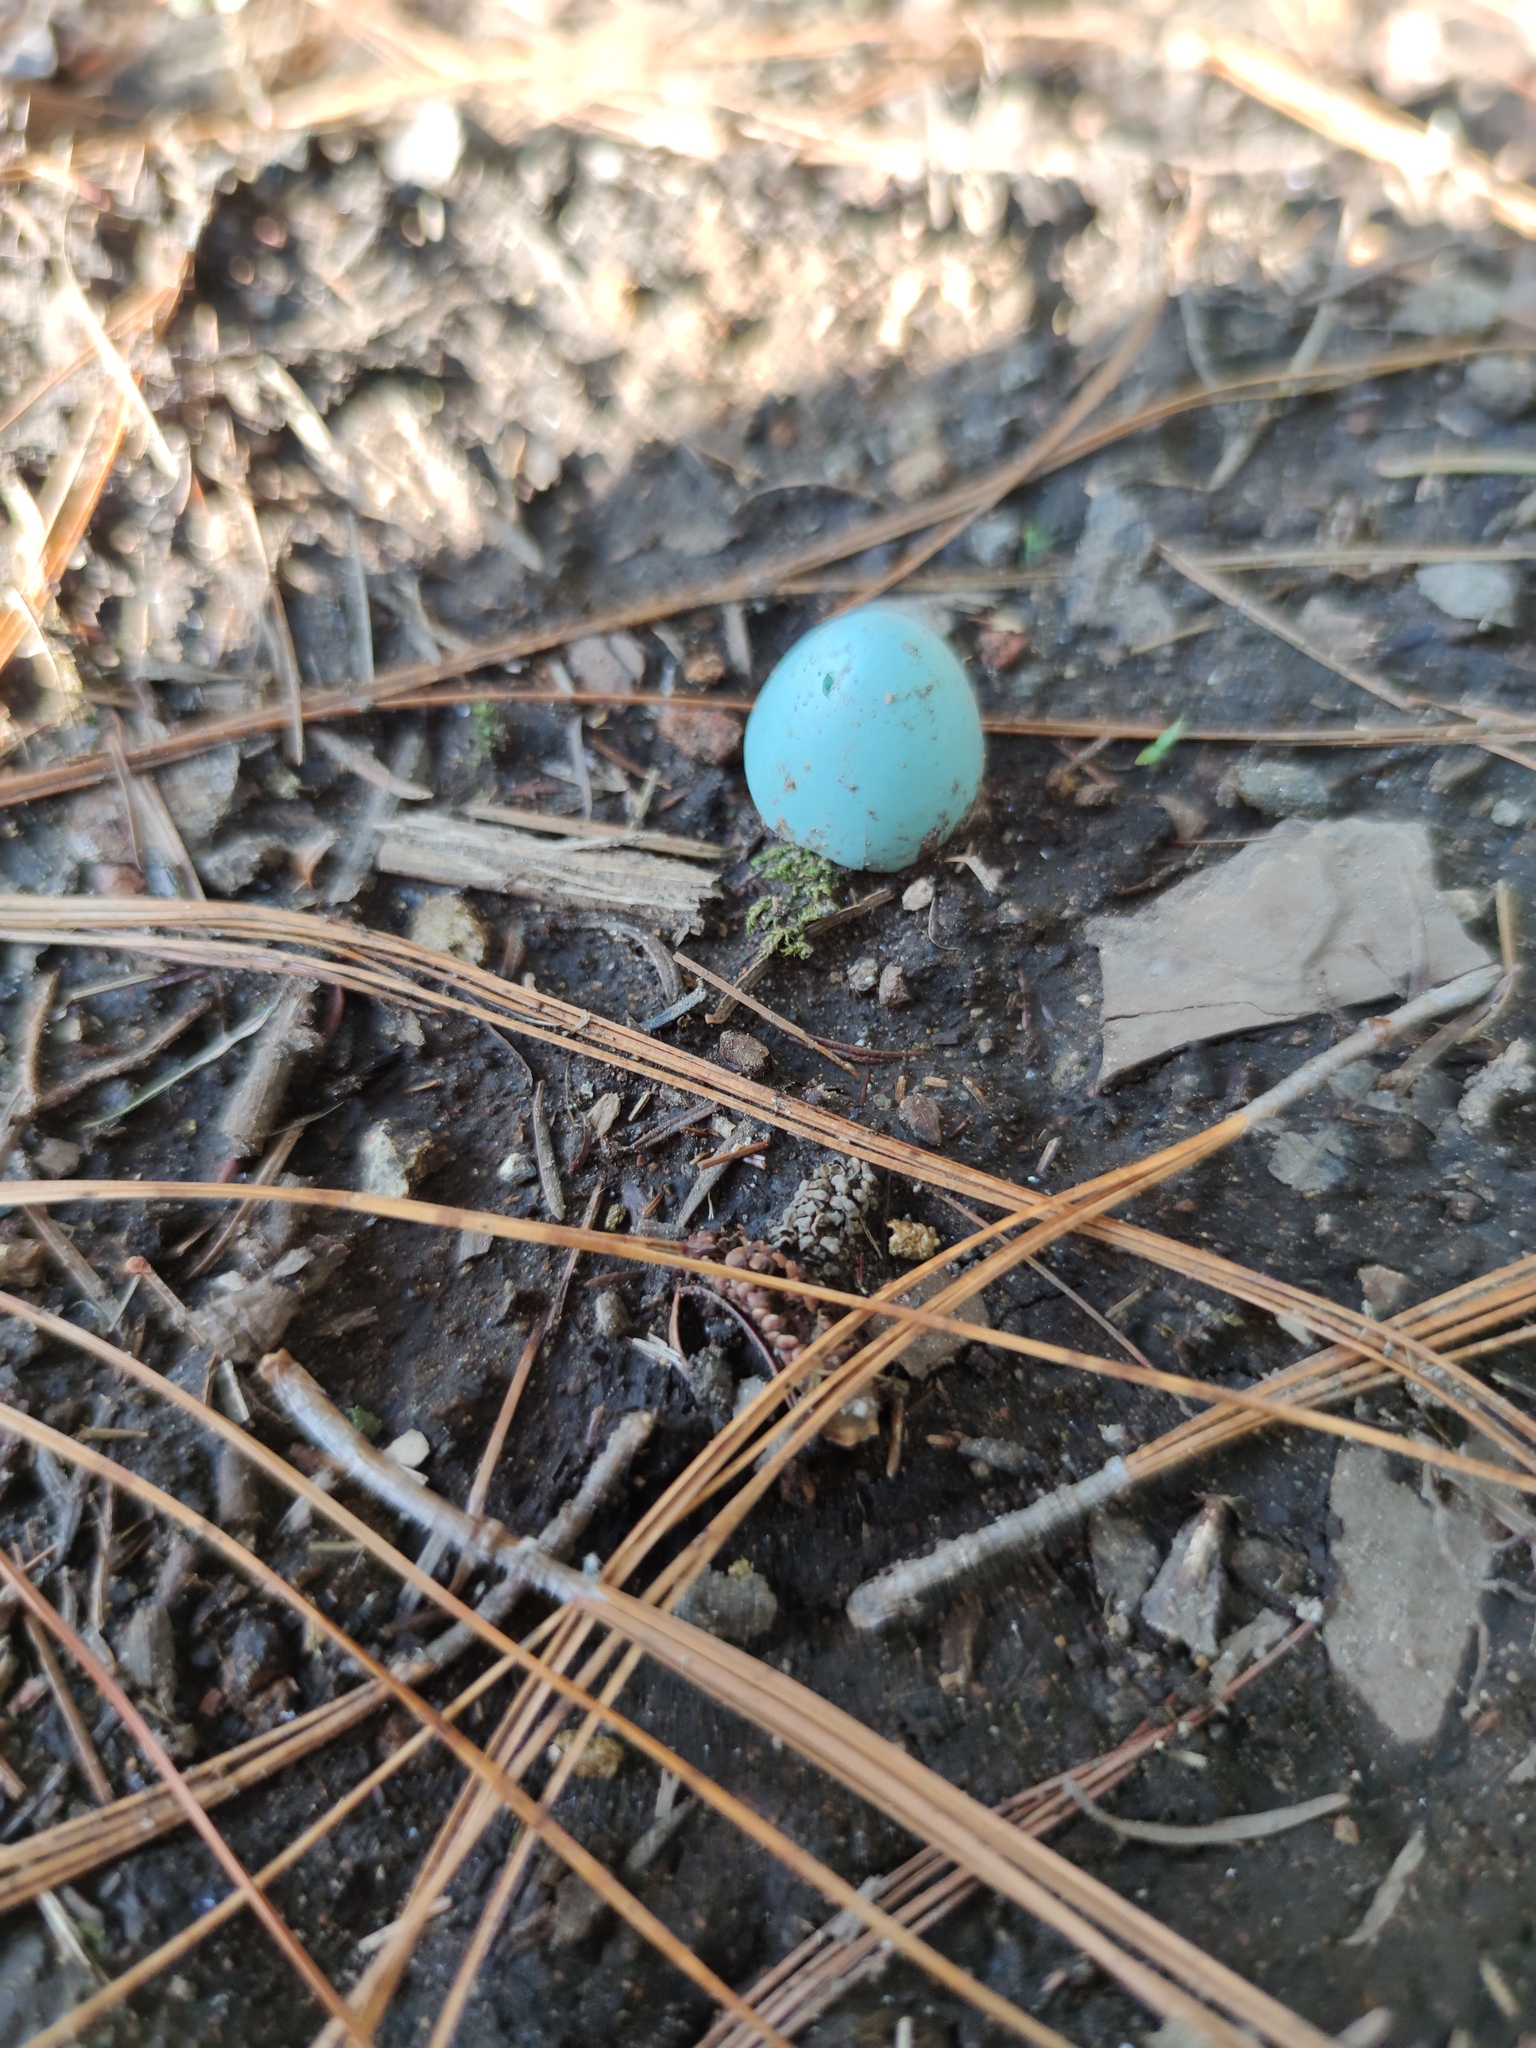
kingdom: Animalia
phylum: Chordata
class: Aves
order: Passeriformes
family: Turdidae
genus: Turdus
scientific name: Turdus migratorius
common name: American robin
